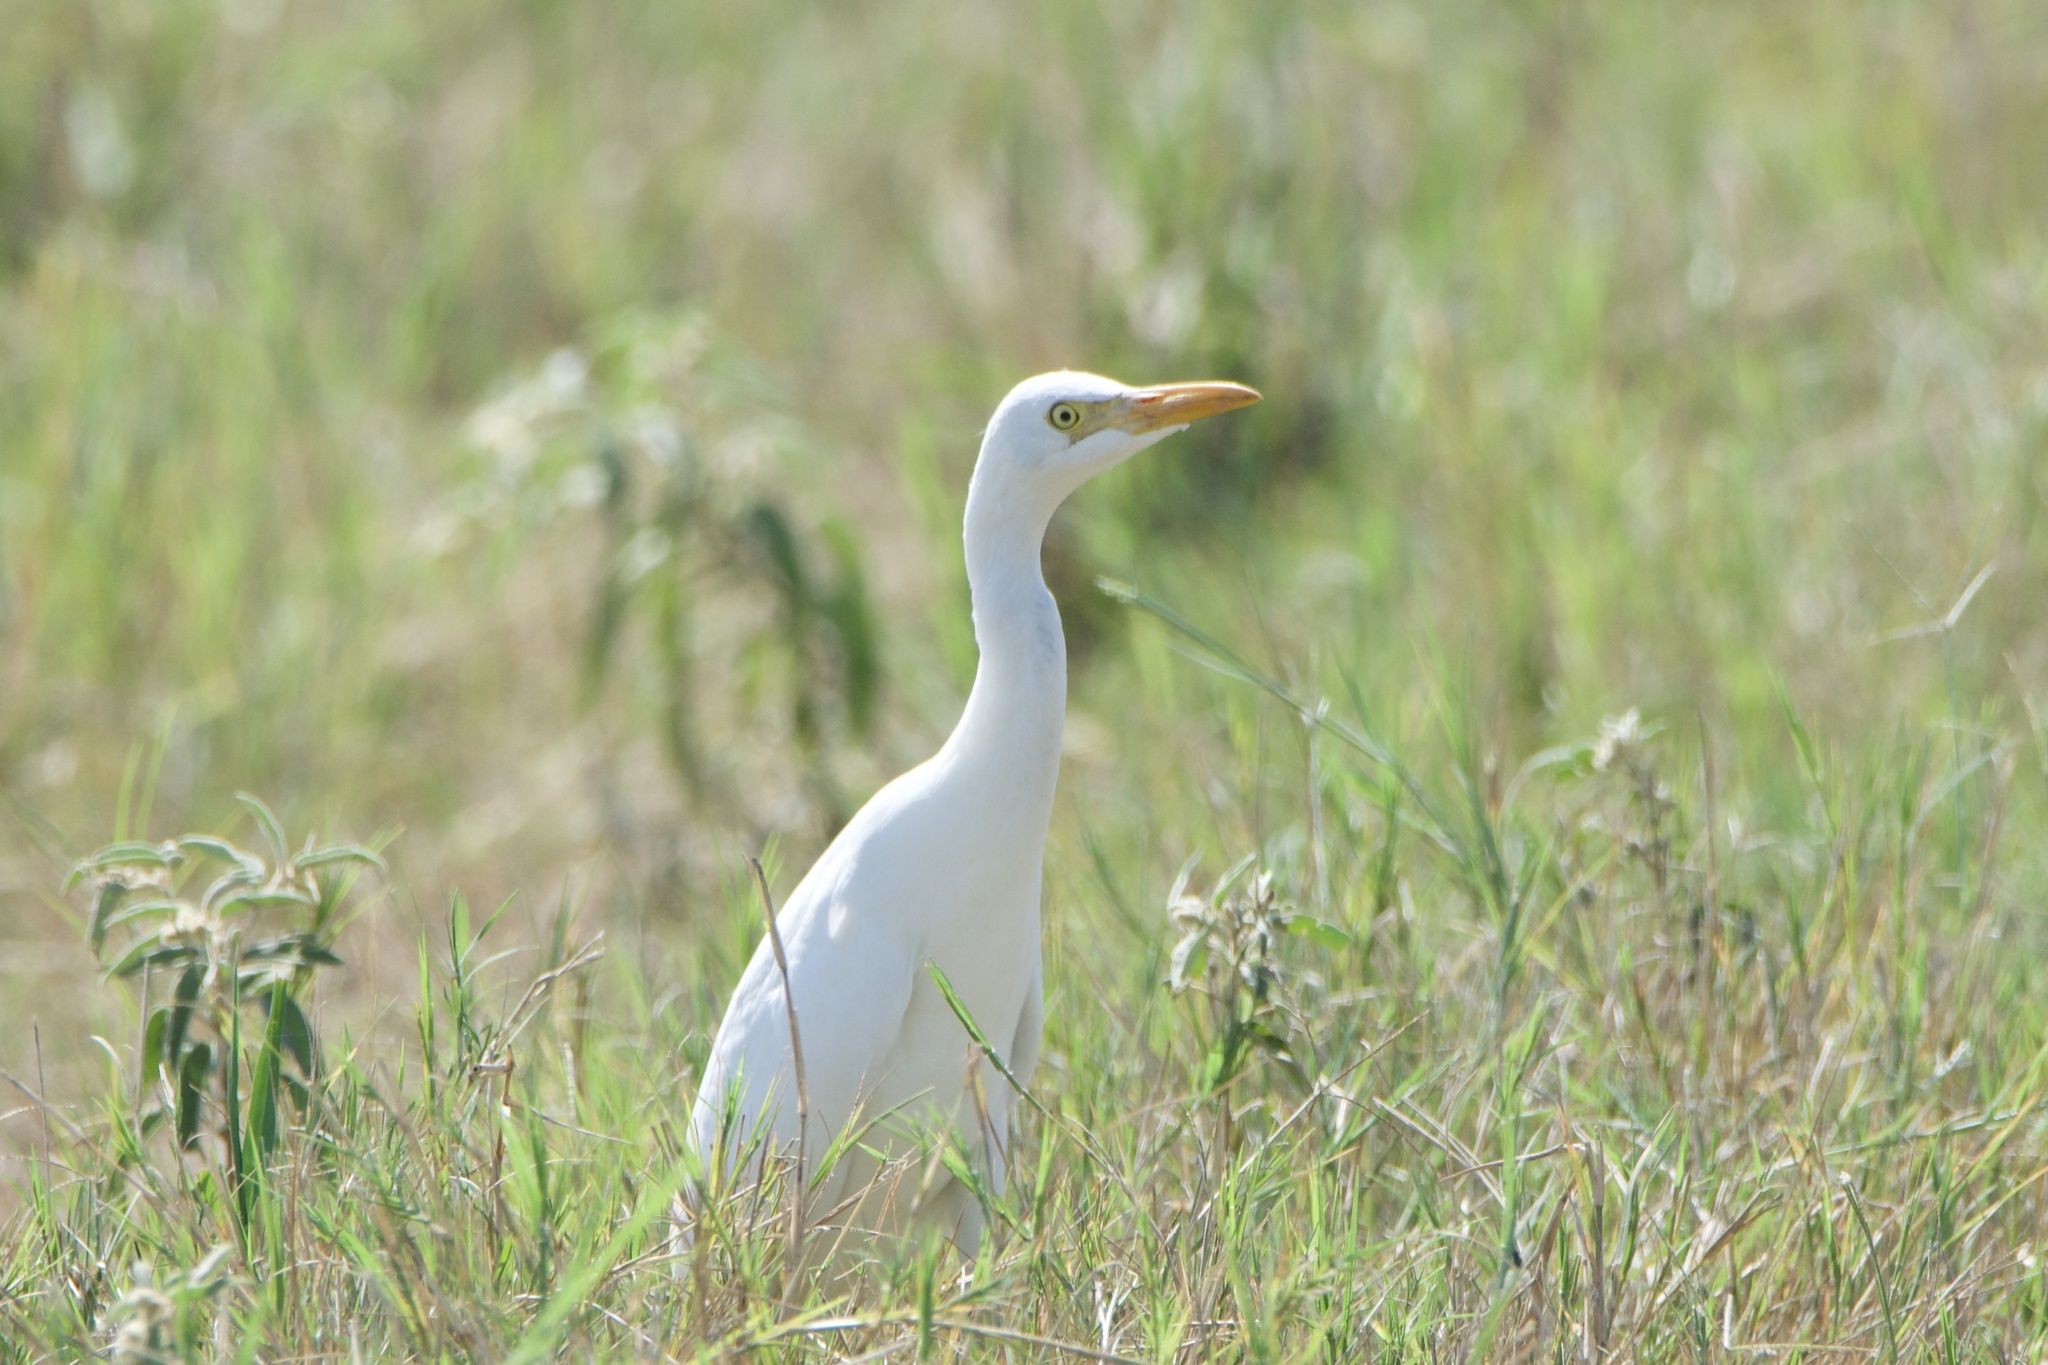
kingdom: Animalia
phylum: Chordata
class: Aves
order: Pelecaniformes
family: Ardeidae
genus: Bubulcus
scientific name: Bubulcus ibis
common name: Cattle egret
